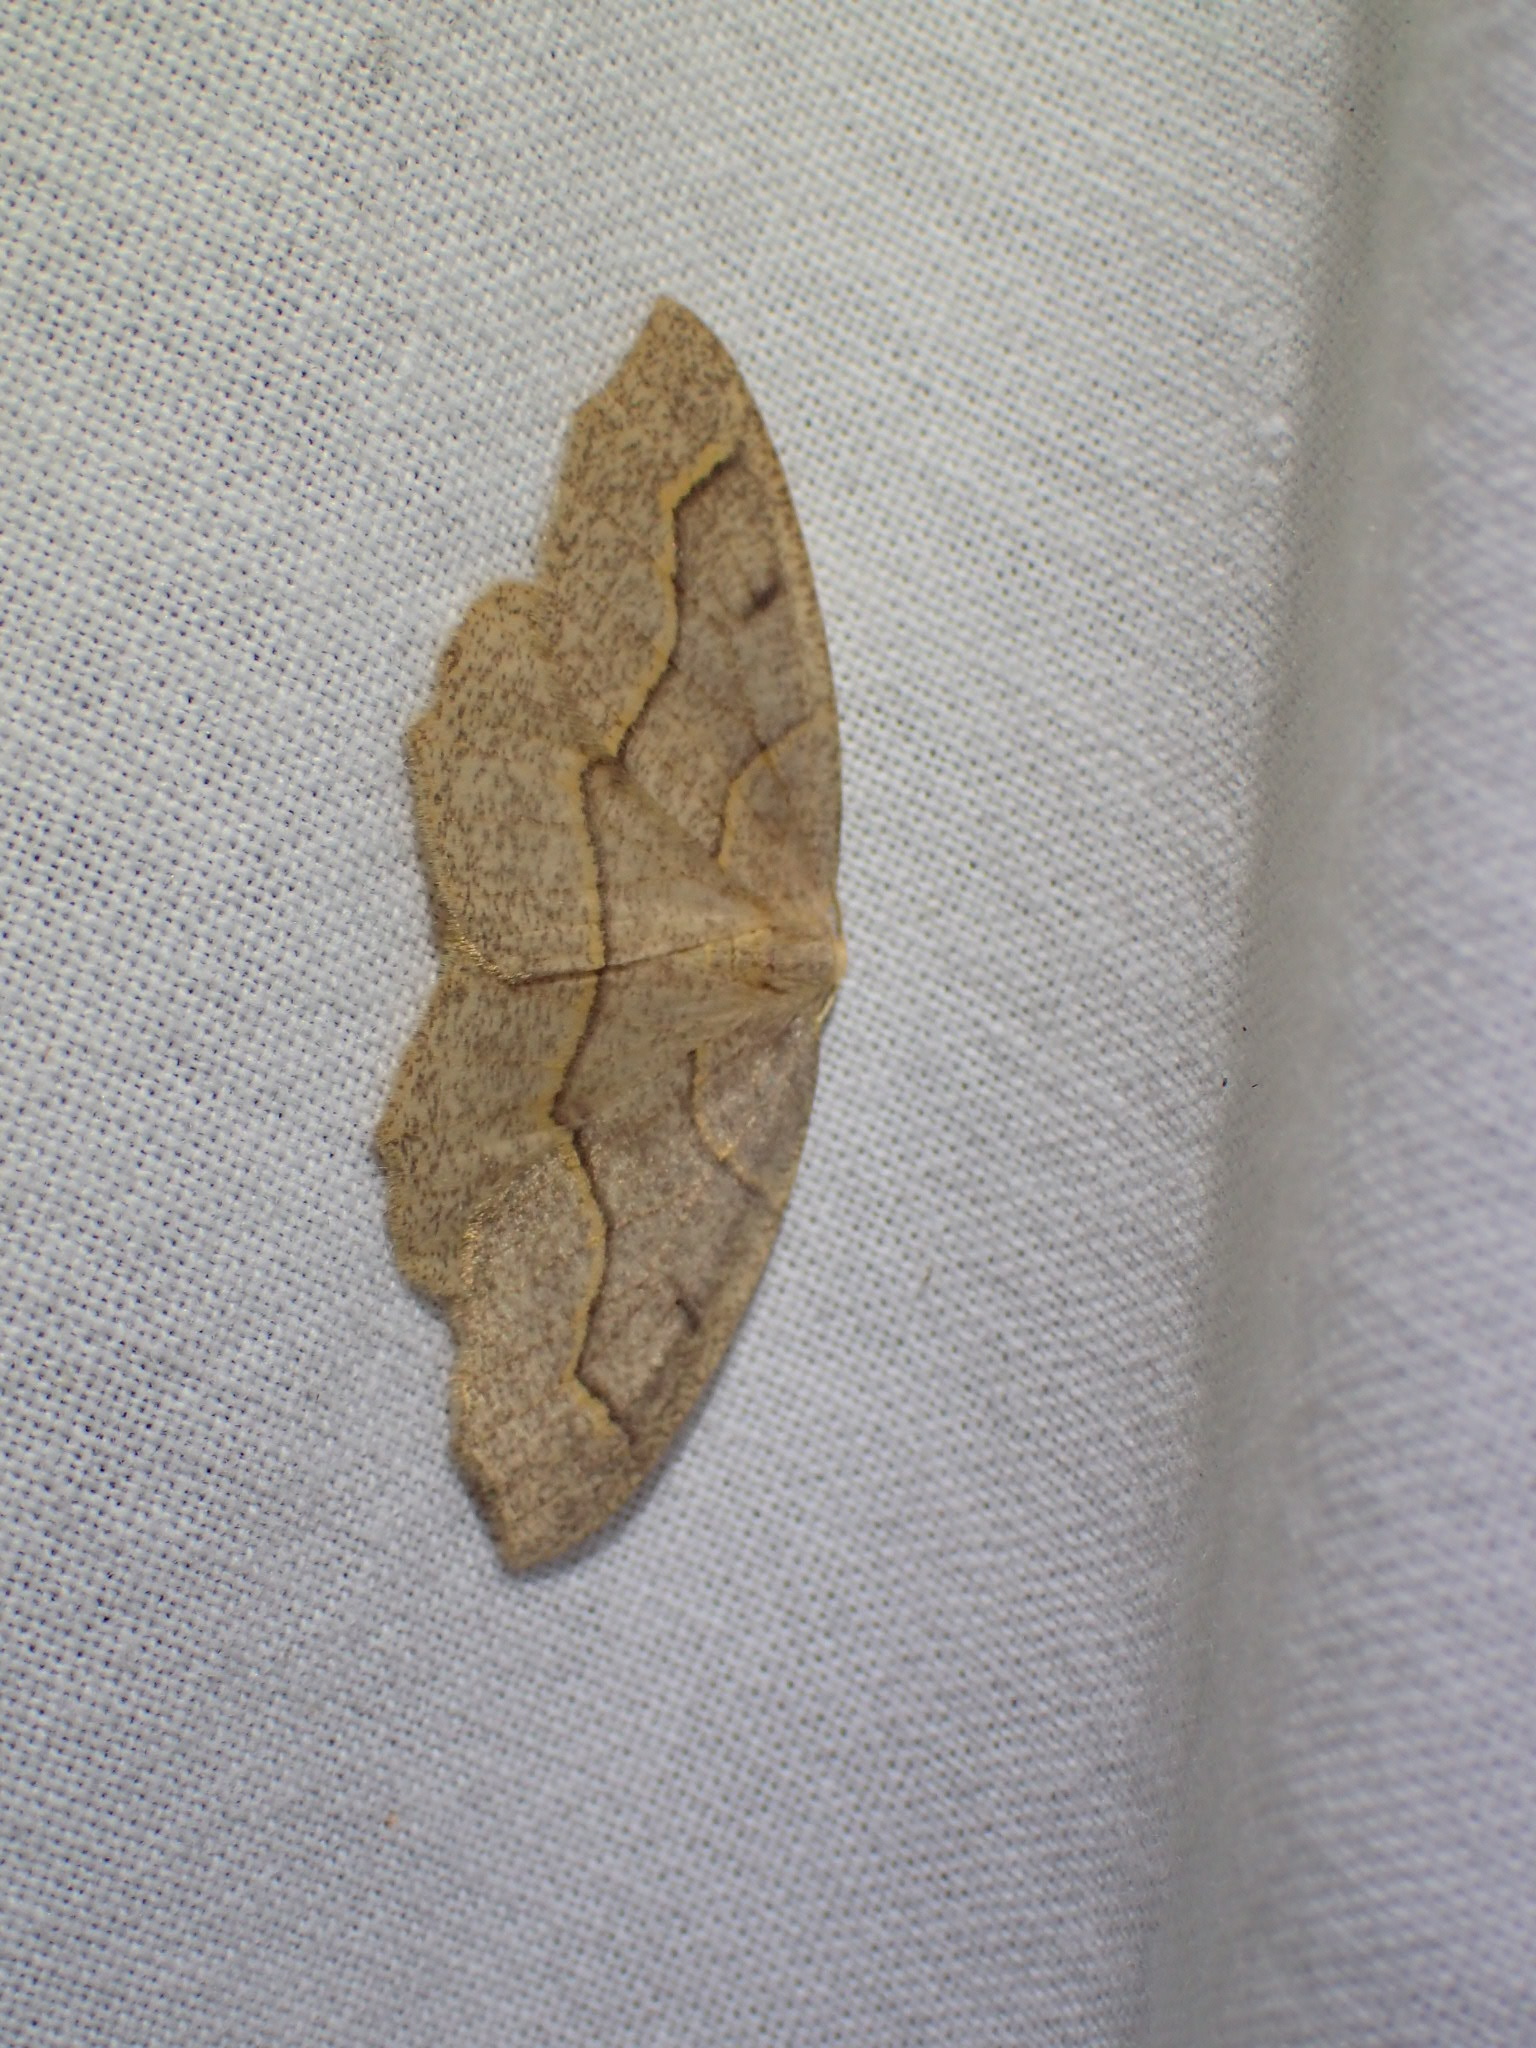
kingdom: Animalia
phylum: Arthropoda
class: Insecta
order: Lepidoptera
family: Geometridae
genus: Lambdina
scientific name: Lambdina fiscellaria
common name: Hemlock looper
